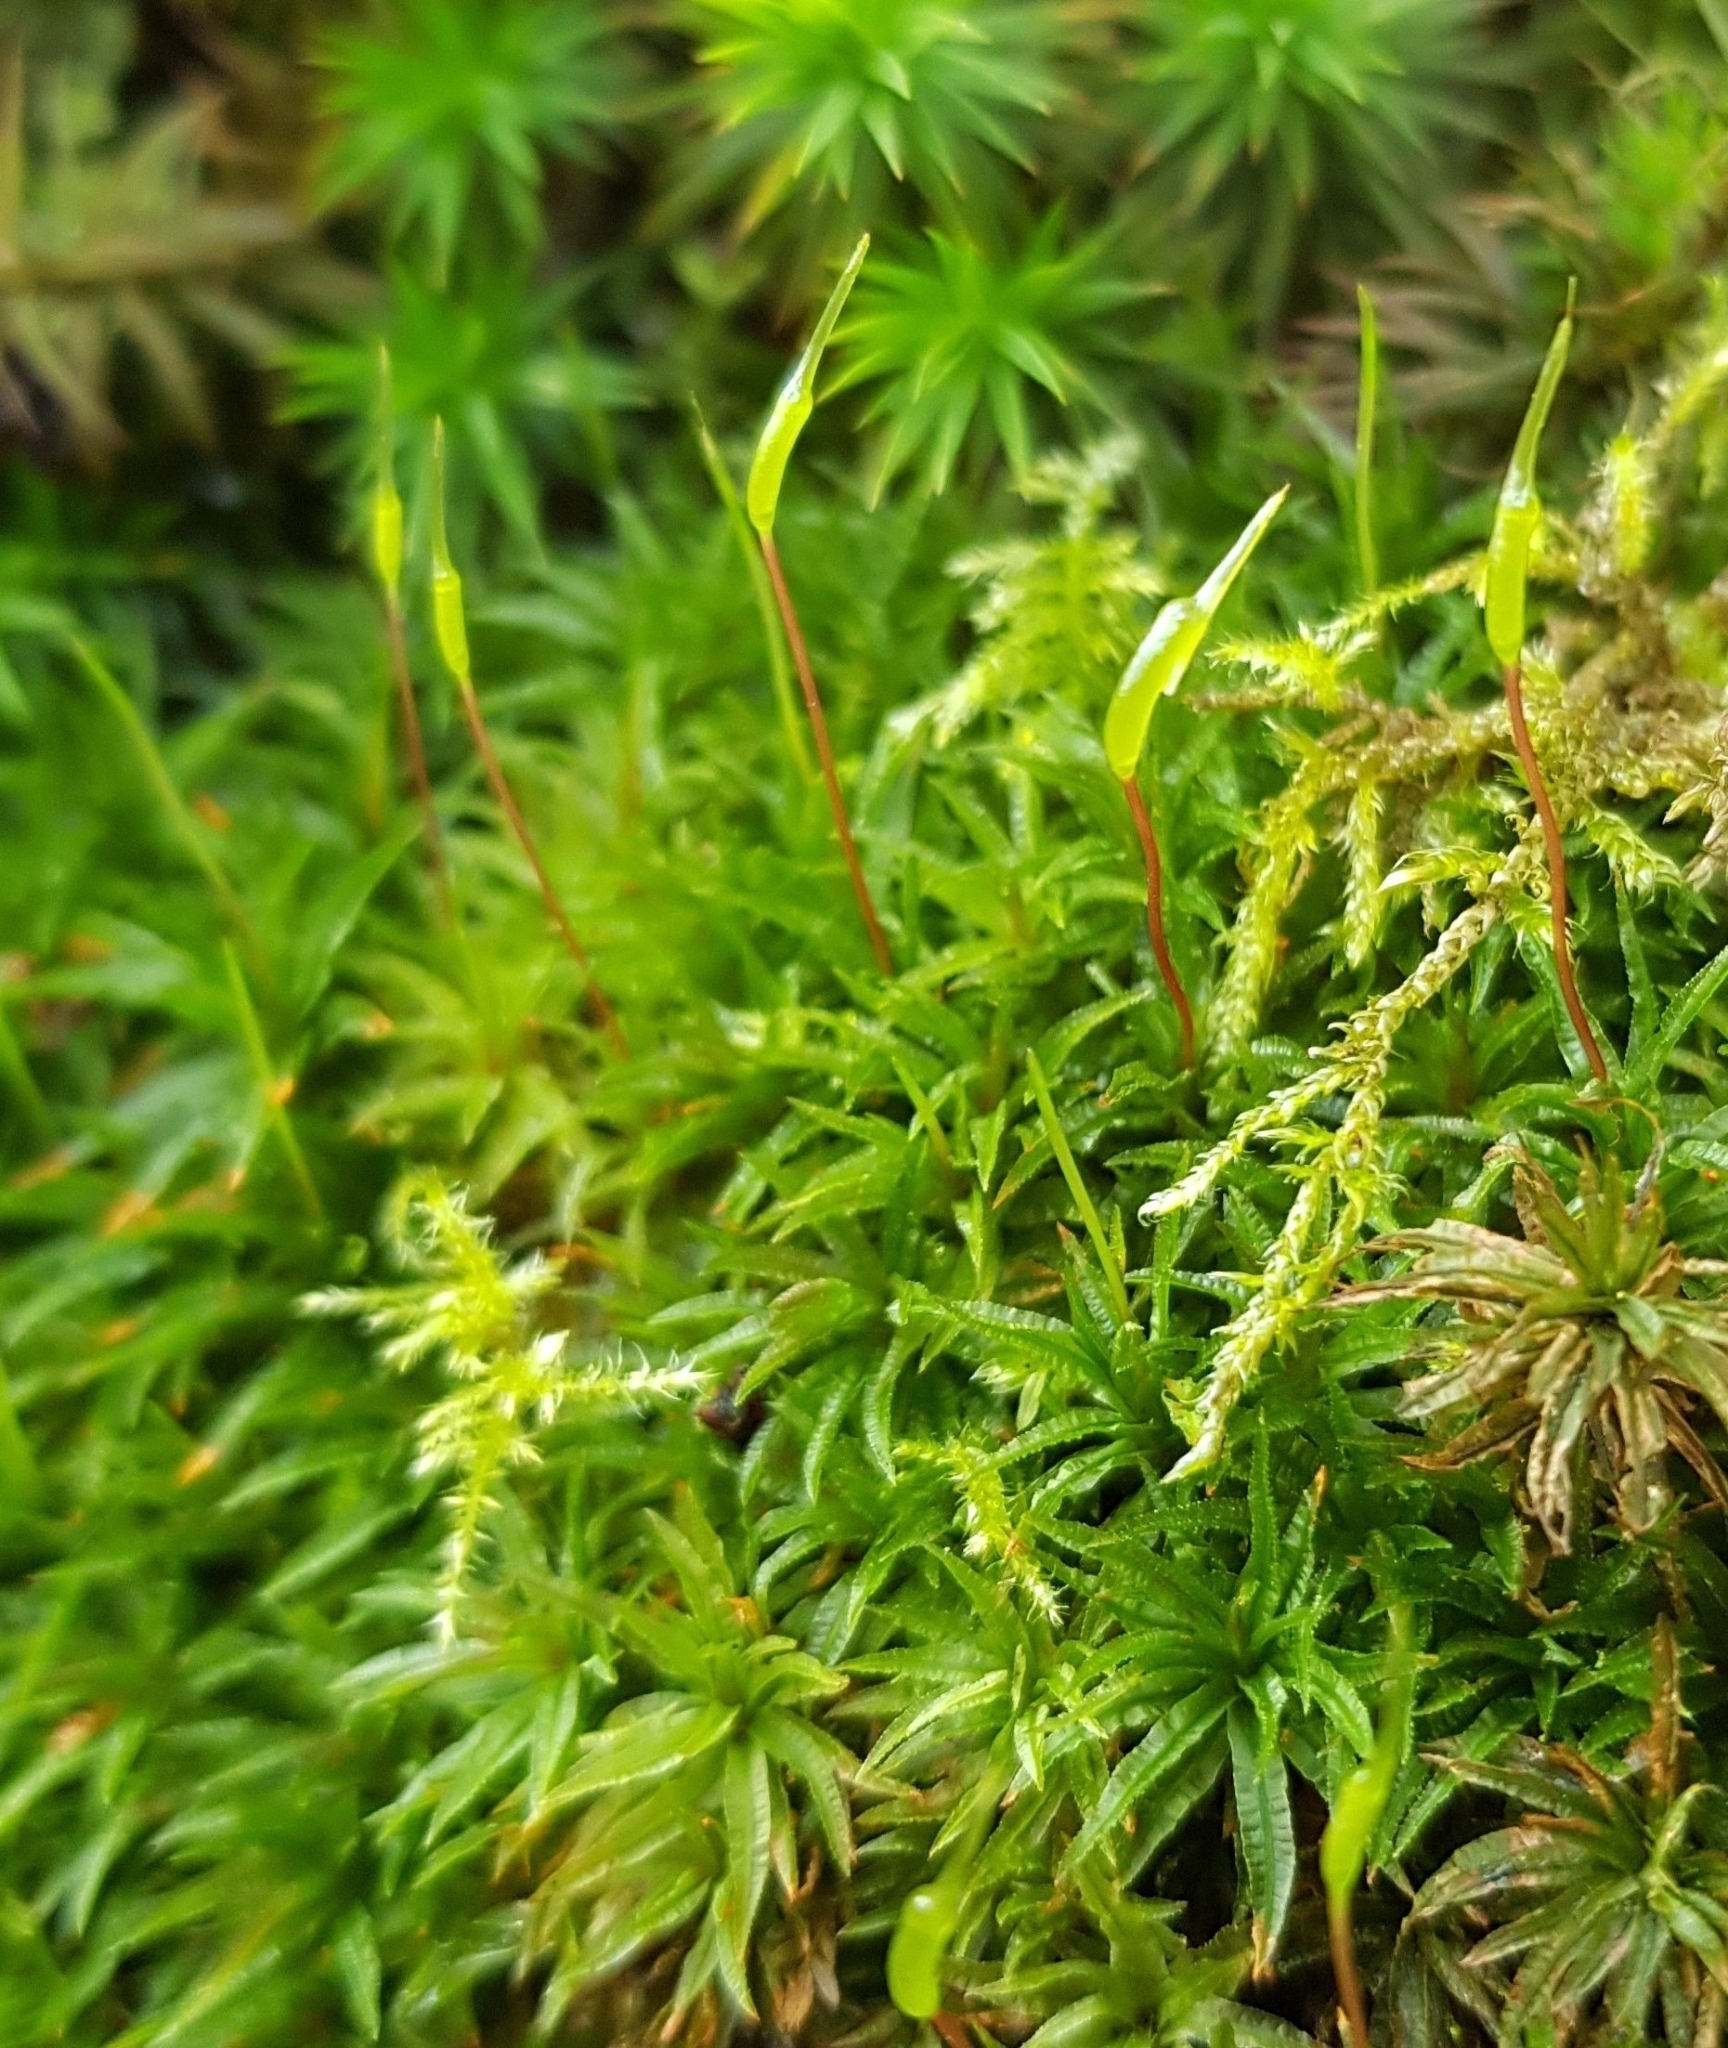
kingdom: Plantae
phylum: Bryophyta
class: Polytrichopsida
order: Polytrichales
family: Polytrichaceae
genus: Atrichum
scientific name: Atrichum undulatum
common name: Common smoothcap
